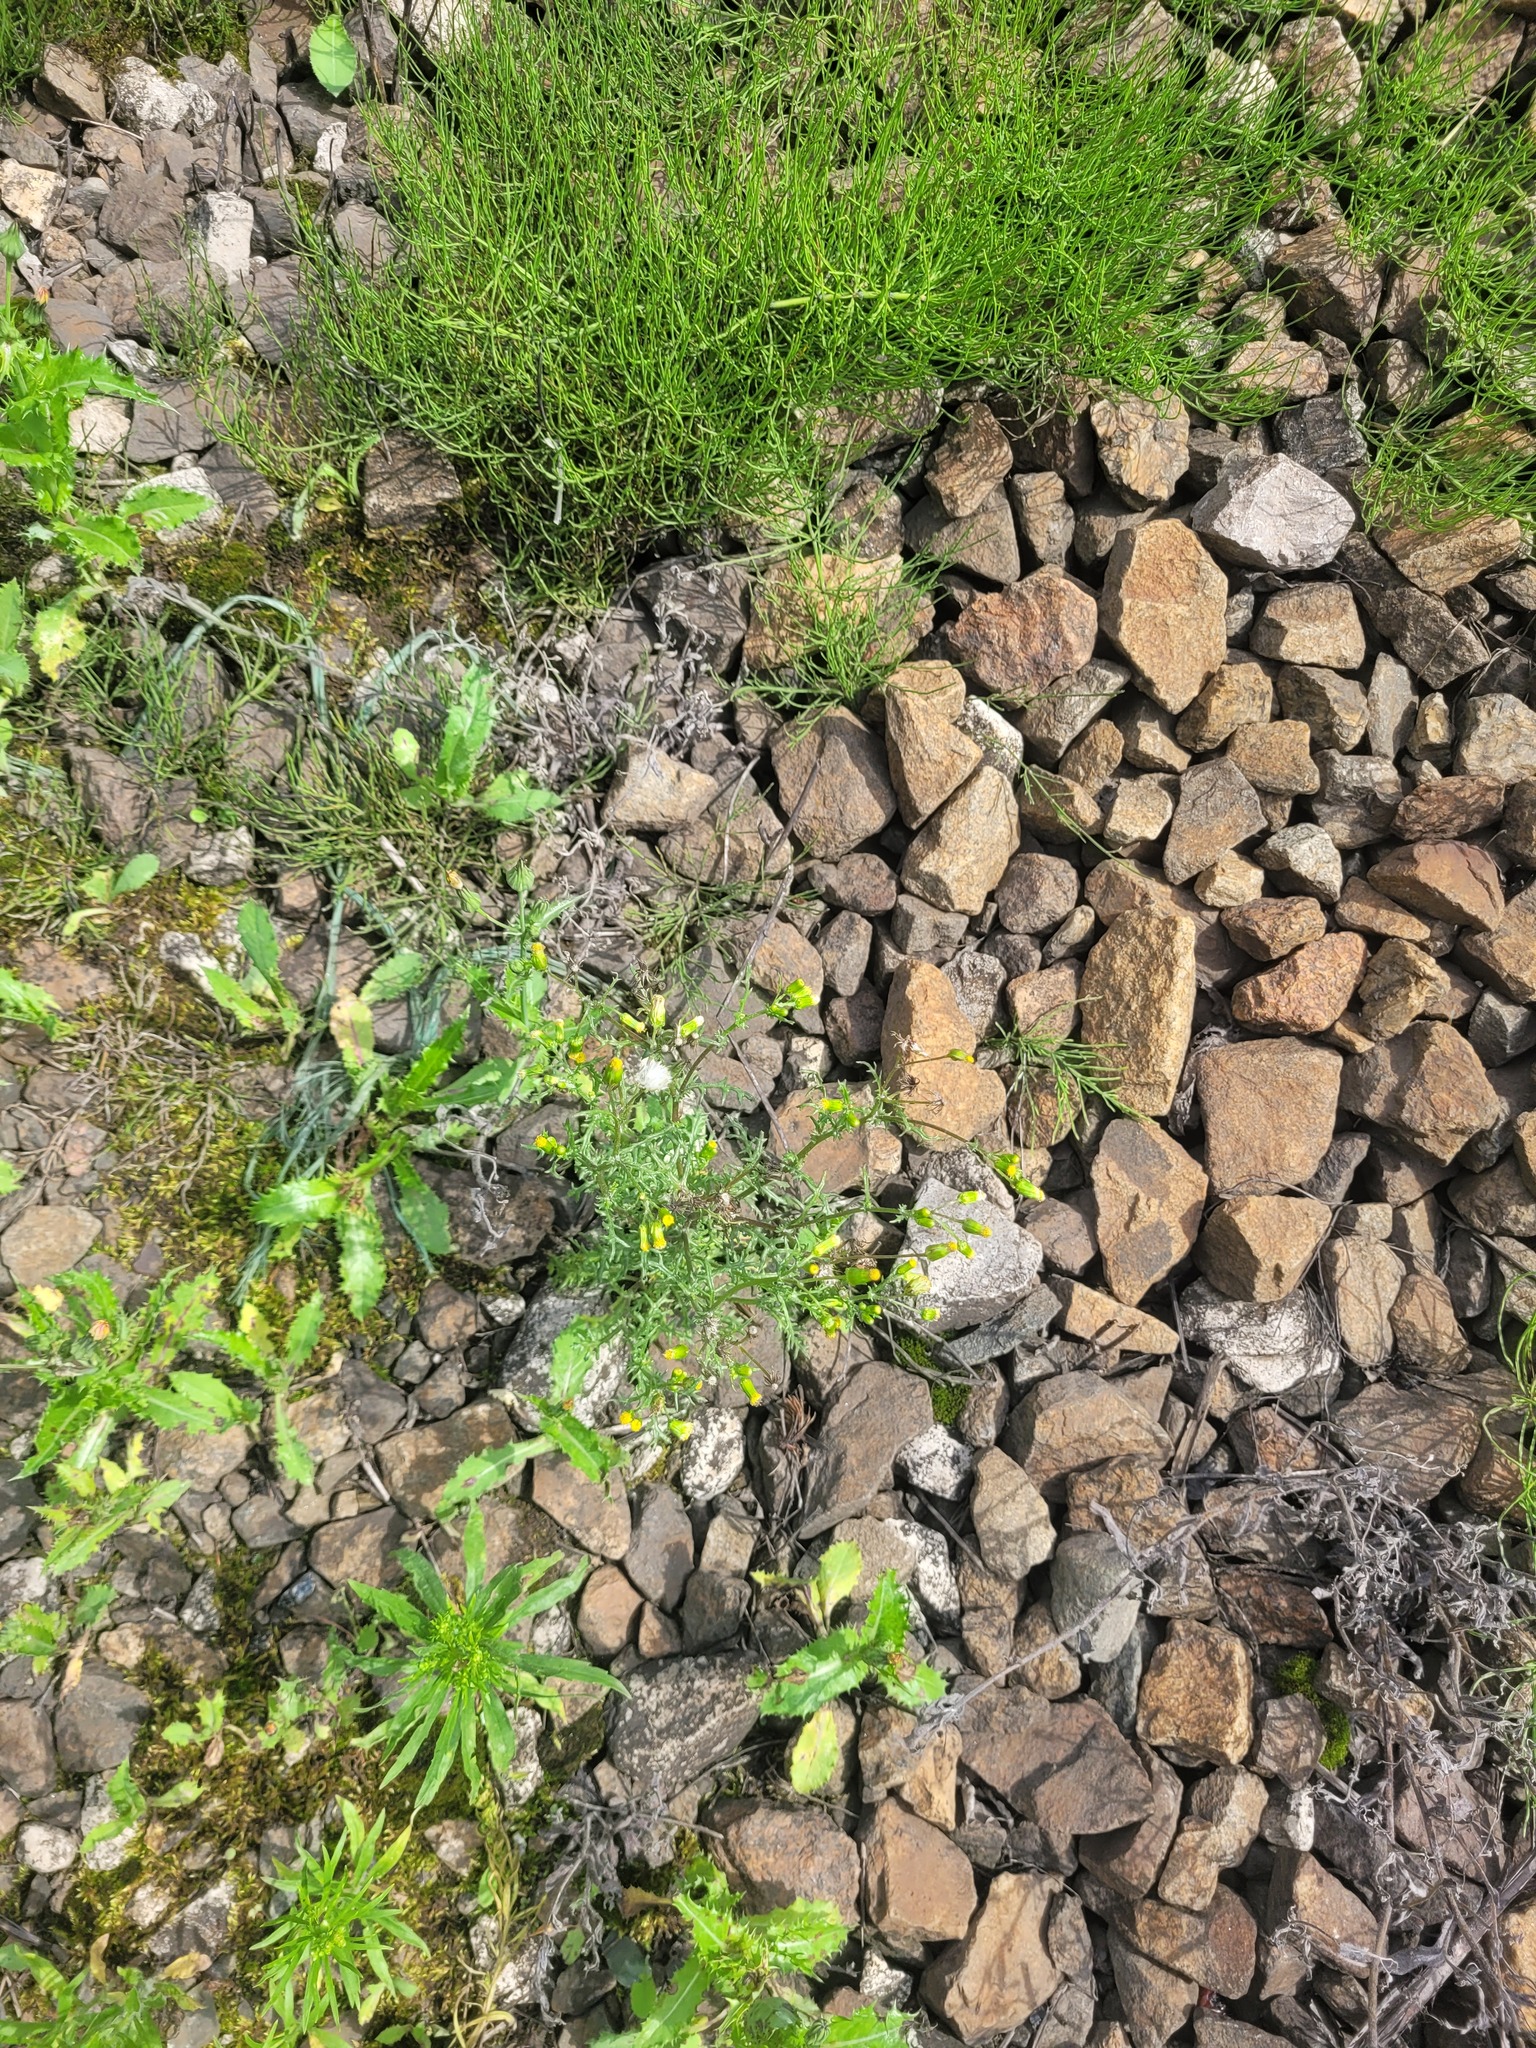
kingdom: Plantae
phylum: Tracheophyta
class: Magnoliopsida
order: Asterales
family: Asteraceae
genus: Senecio
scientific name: Senecio vulgaris
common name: Old-man-in-the-spring
